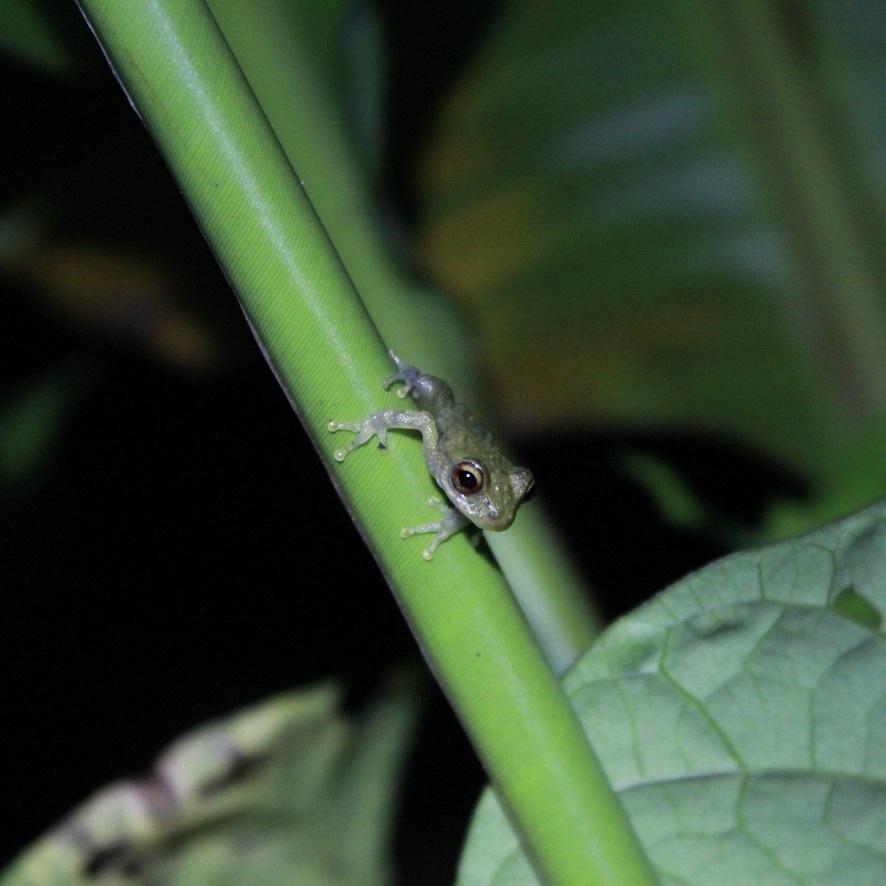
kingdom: Animalia
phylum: Chordata
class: Amphibia
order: Anura
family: Hemiphractidae
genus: Flectonotus
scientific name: Flectonotus fitzgeraldi
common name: Marsupial frog
